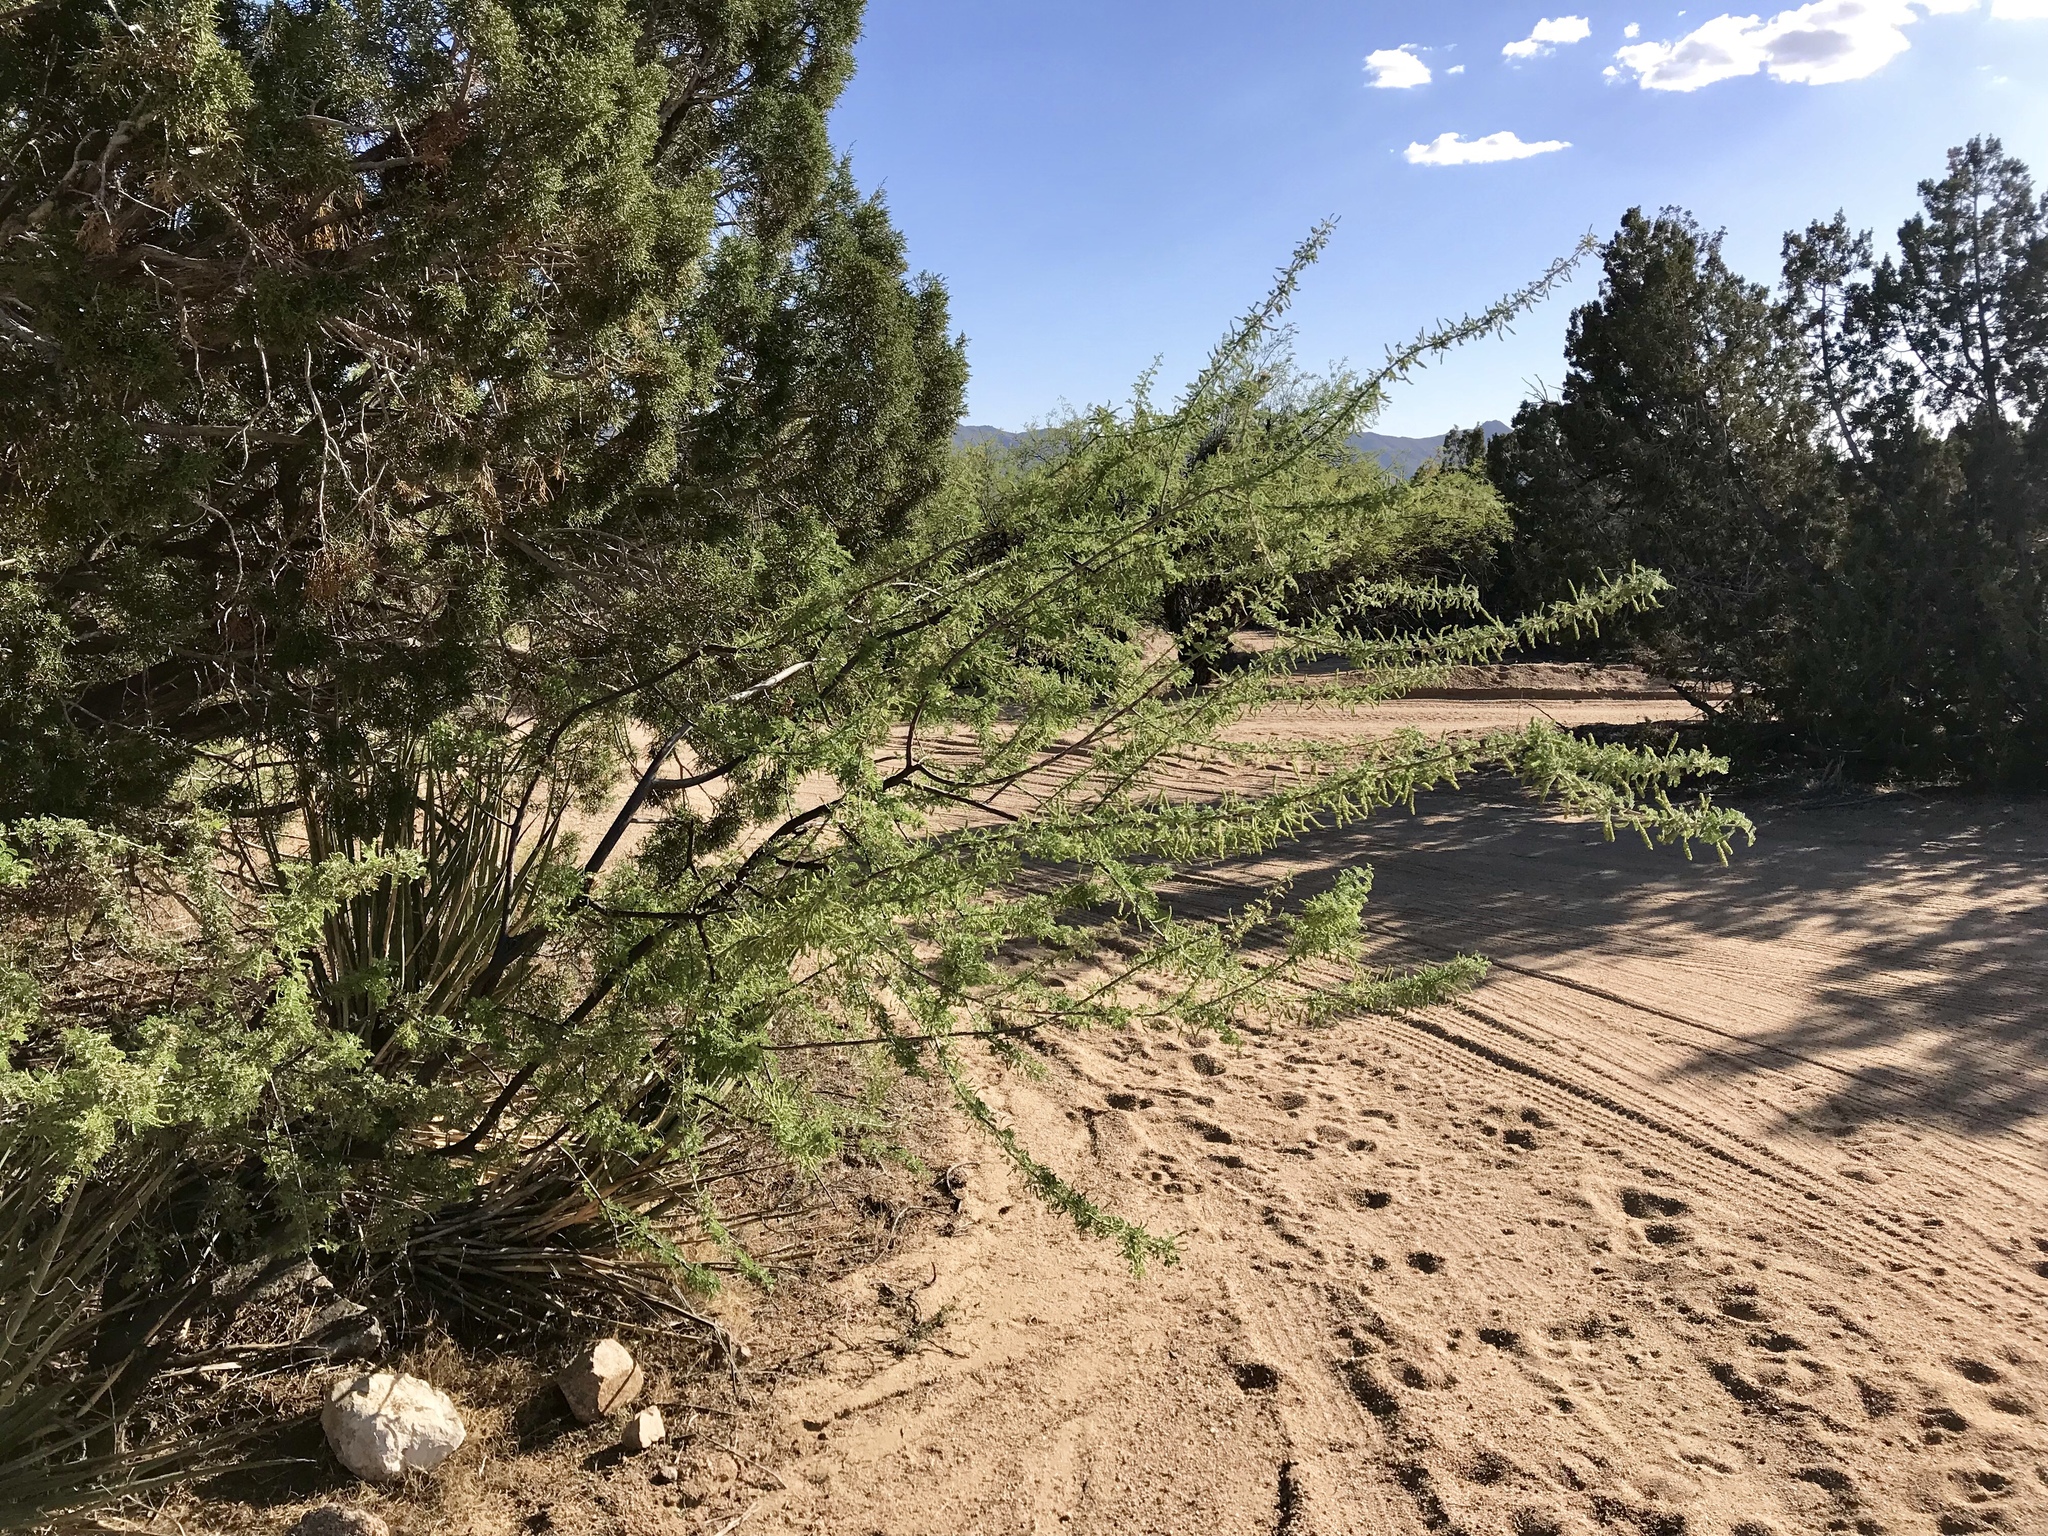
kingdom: Plantae
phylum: Tracheophyta
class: Magnoliopsida
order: Fabales
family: Fabaceae
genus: Senegalia
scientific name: Senegalia greggii
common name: Texas-mimosa
